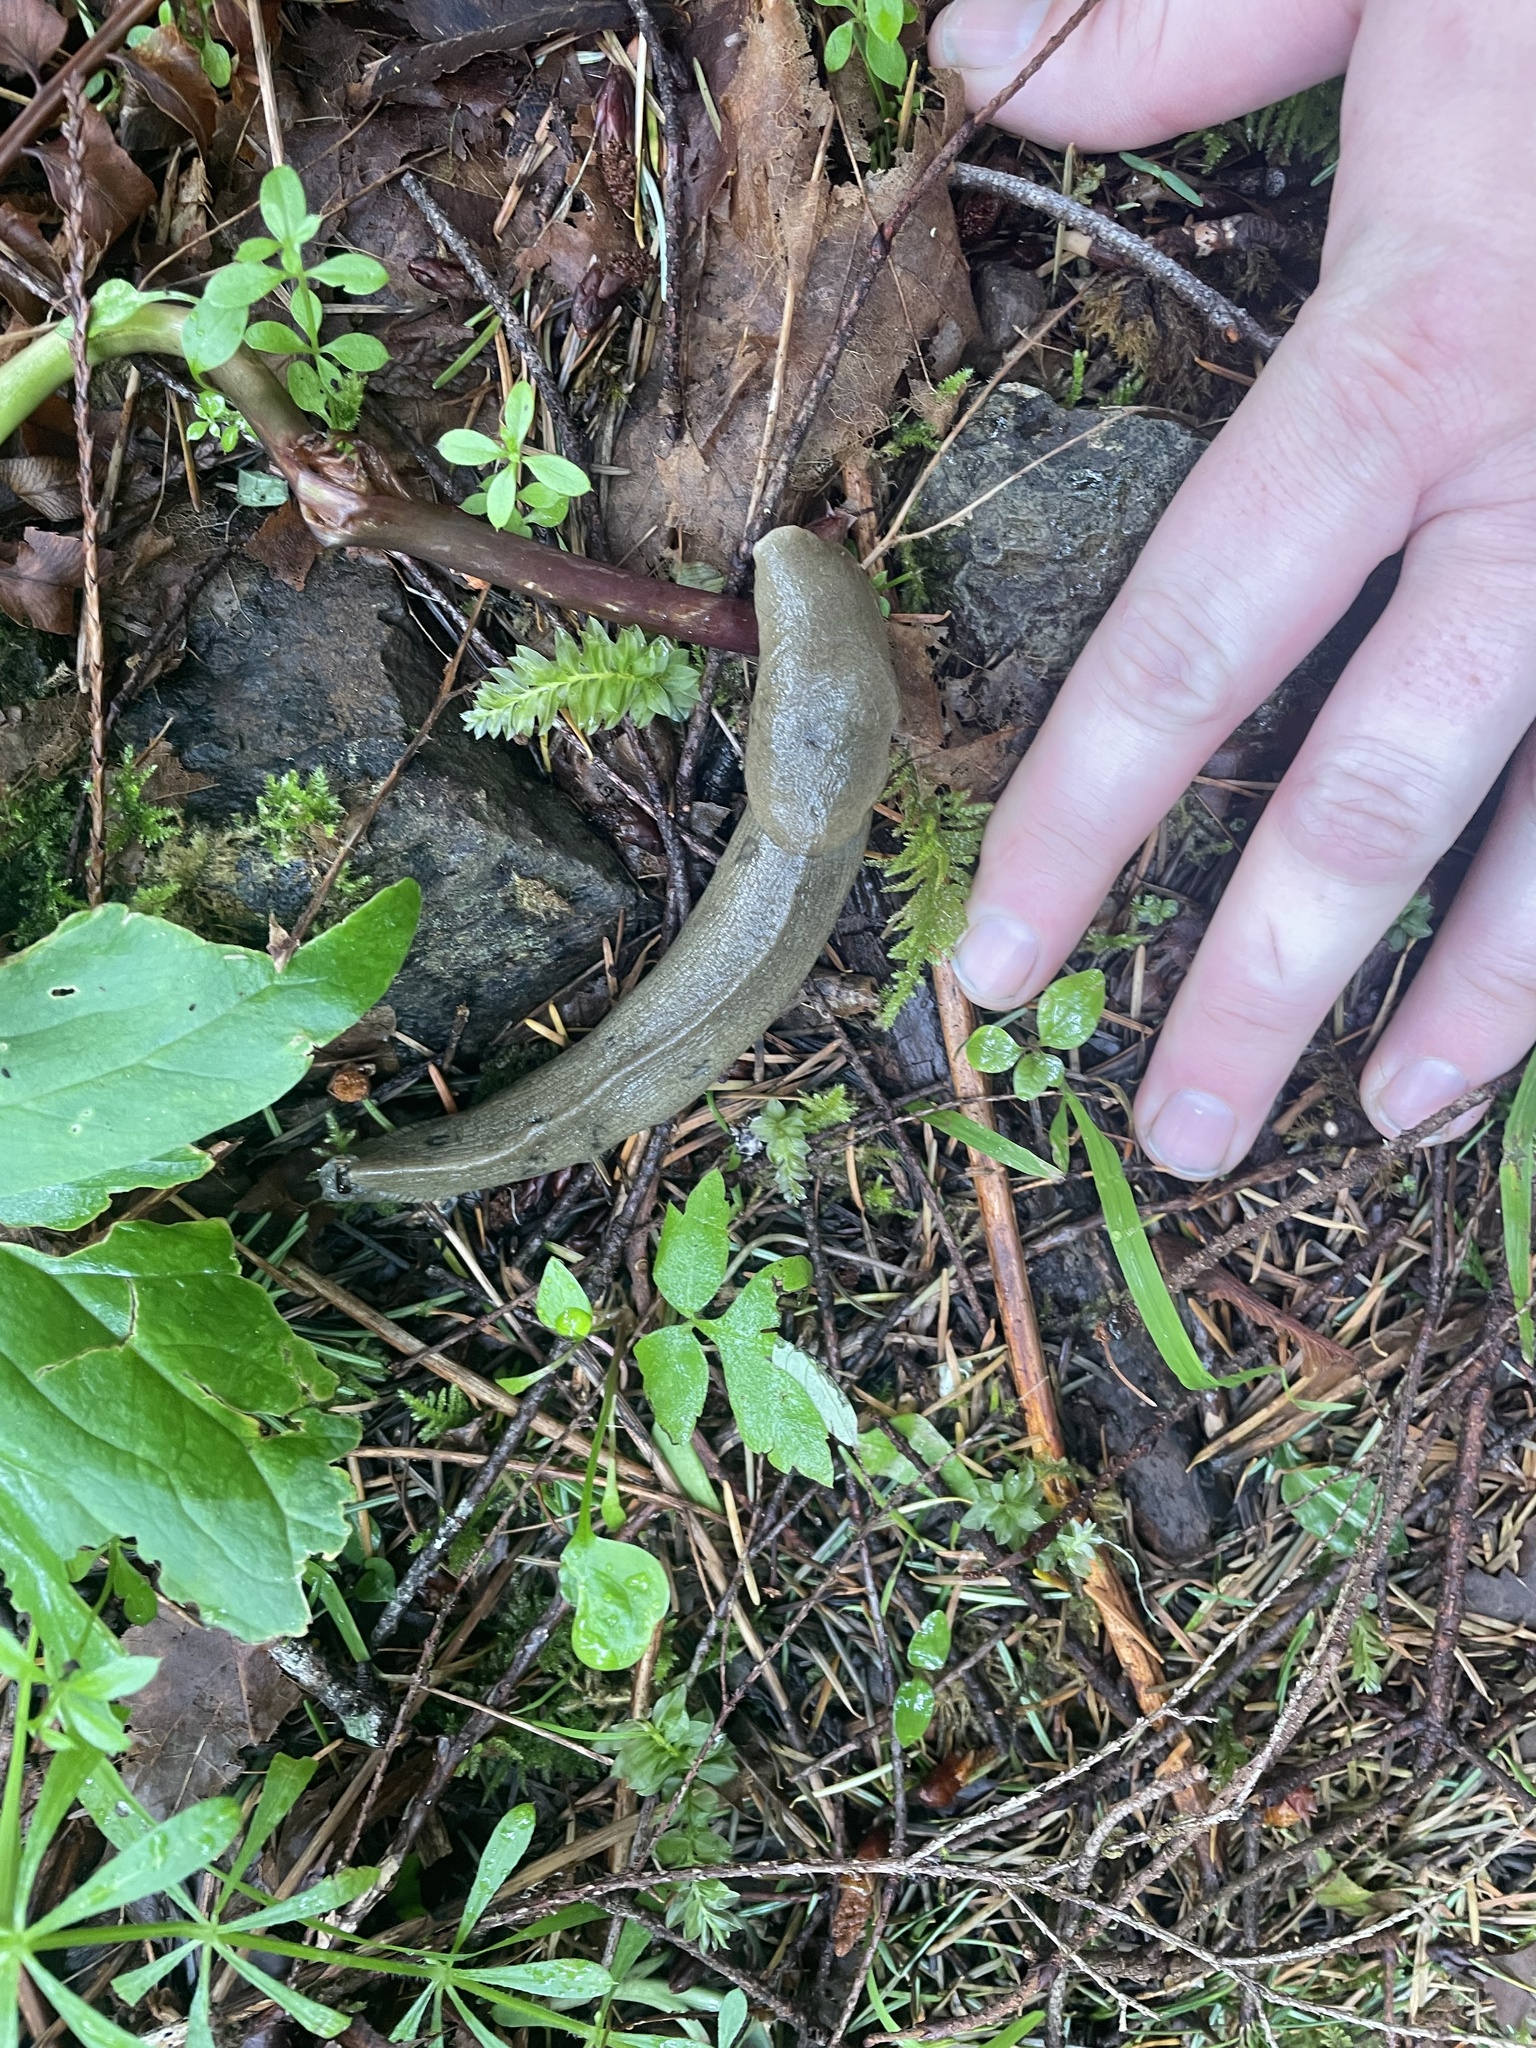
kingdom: Animalia
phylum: Mollusca
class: Gastropoda
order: Stylommatophora
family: Ariolimacidae
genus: Ariolimax
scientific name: Ariolimax columbianus
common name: Pacific banana slug
